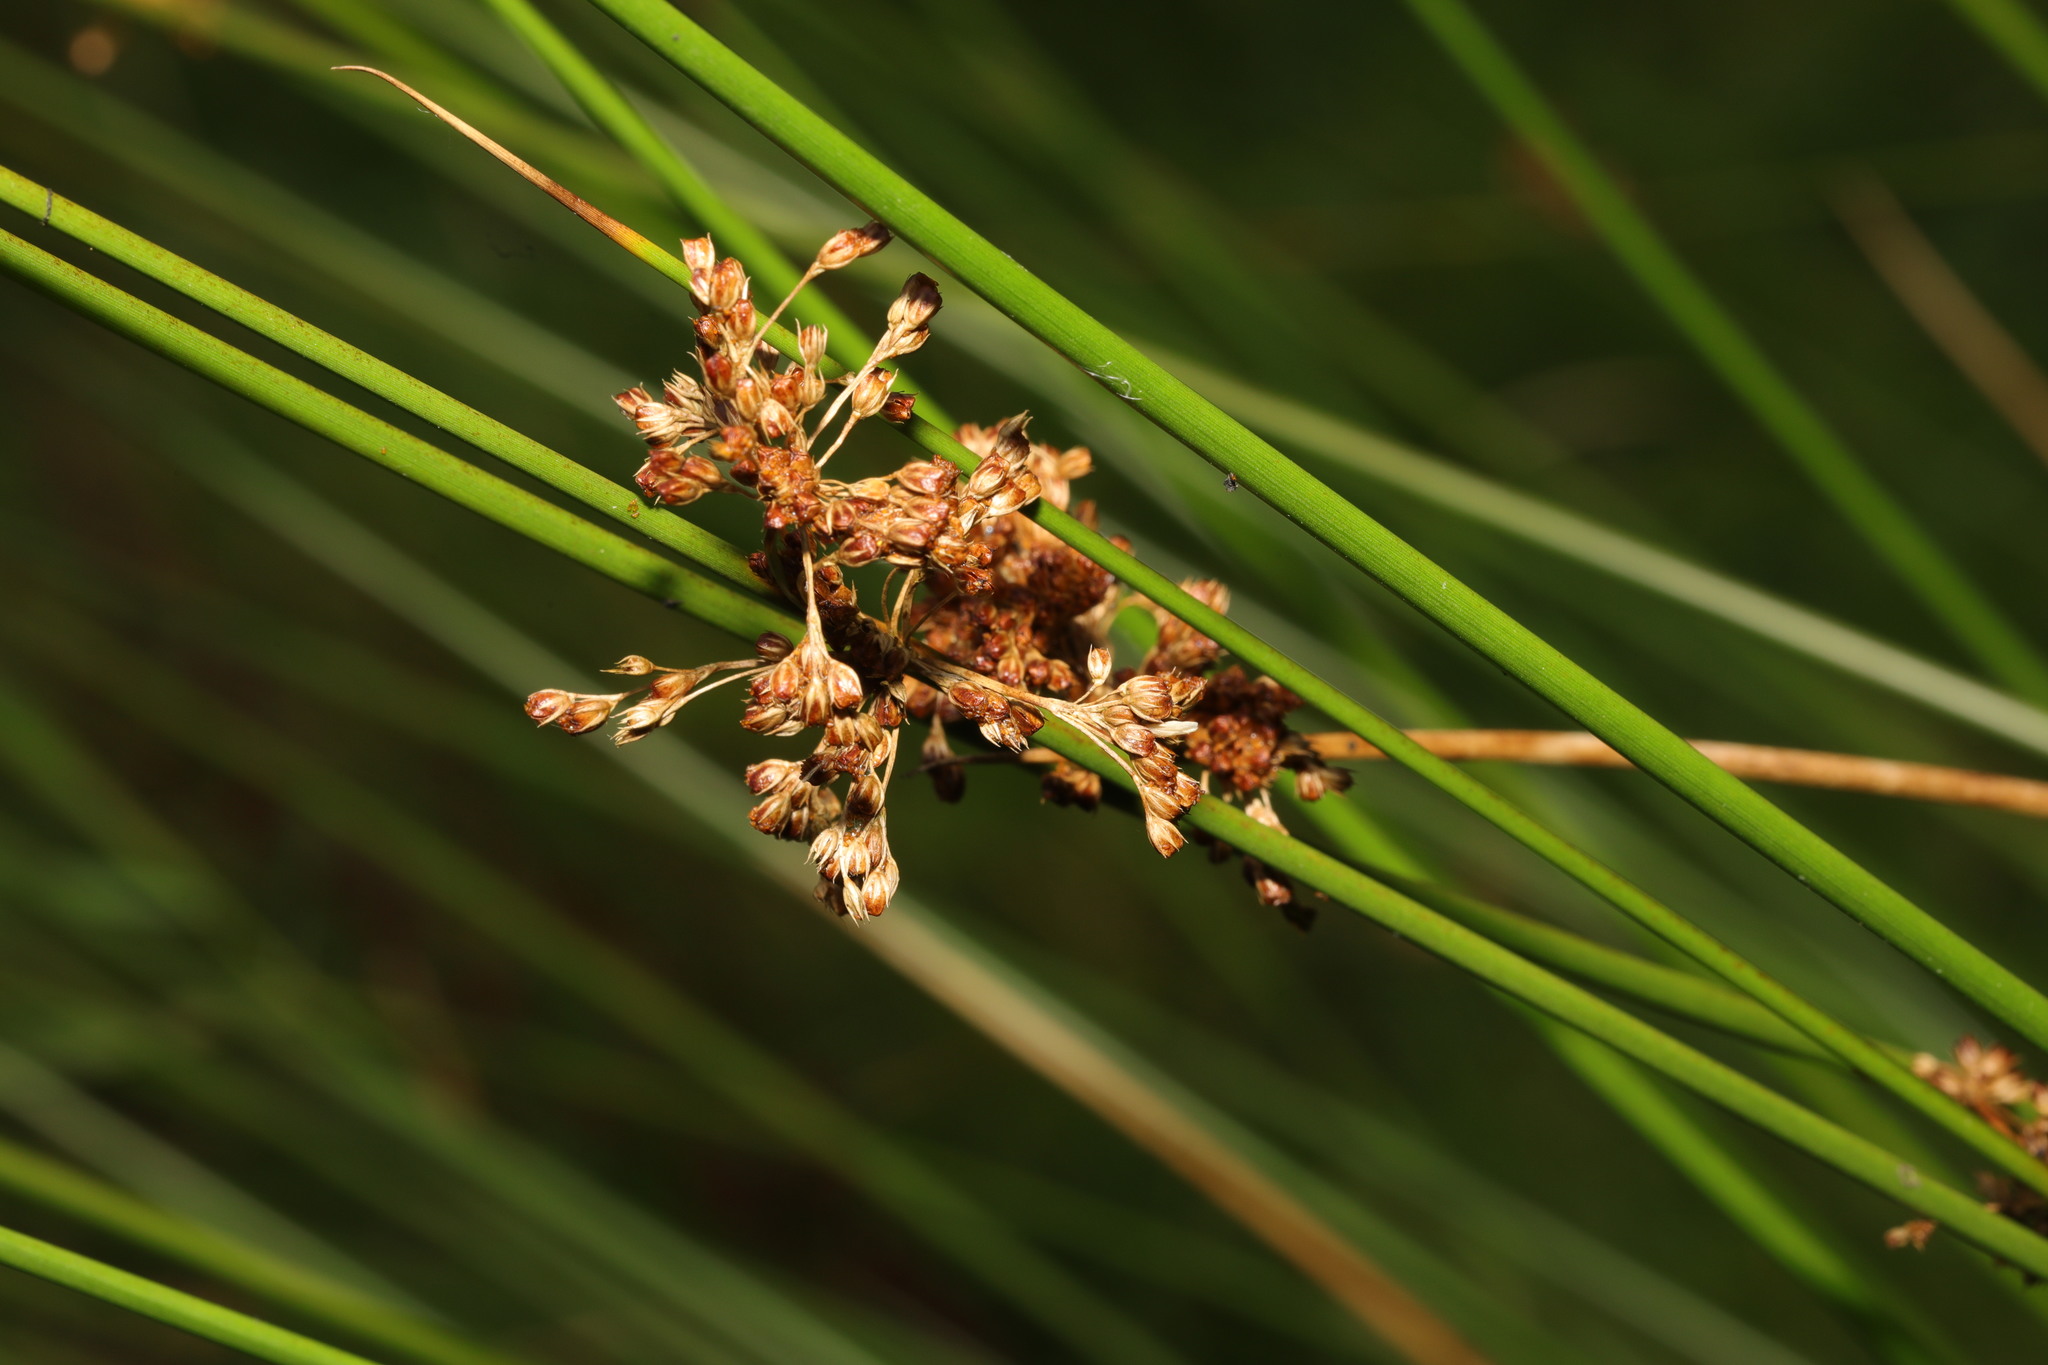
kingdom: Plantae
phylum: Tracheophyta
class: Liliopsida
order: Poales
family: Juncaceae
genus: Juncus
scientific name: Juncus effusus
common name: Soft rush
